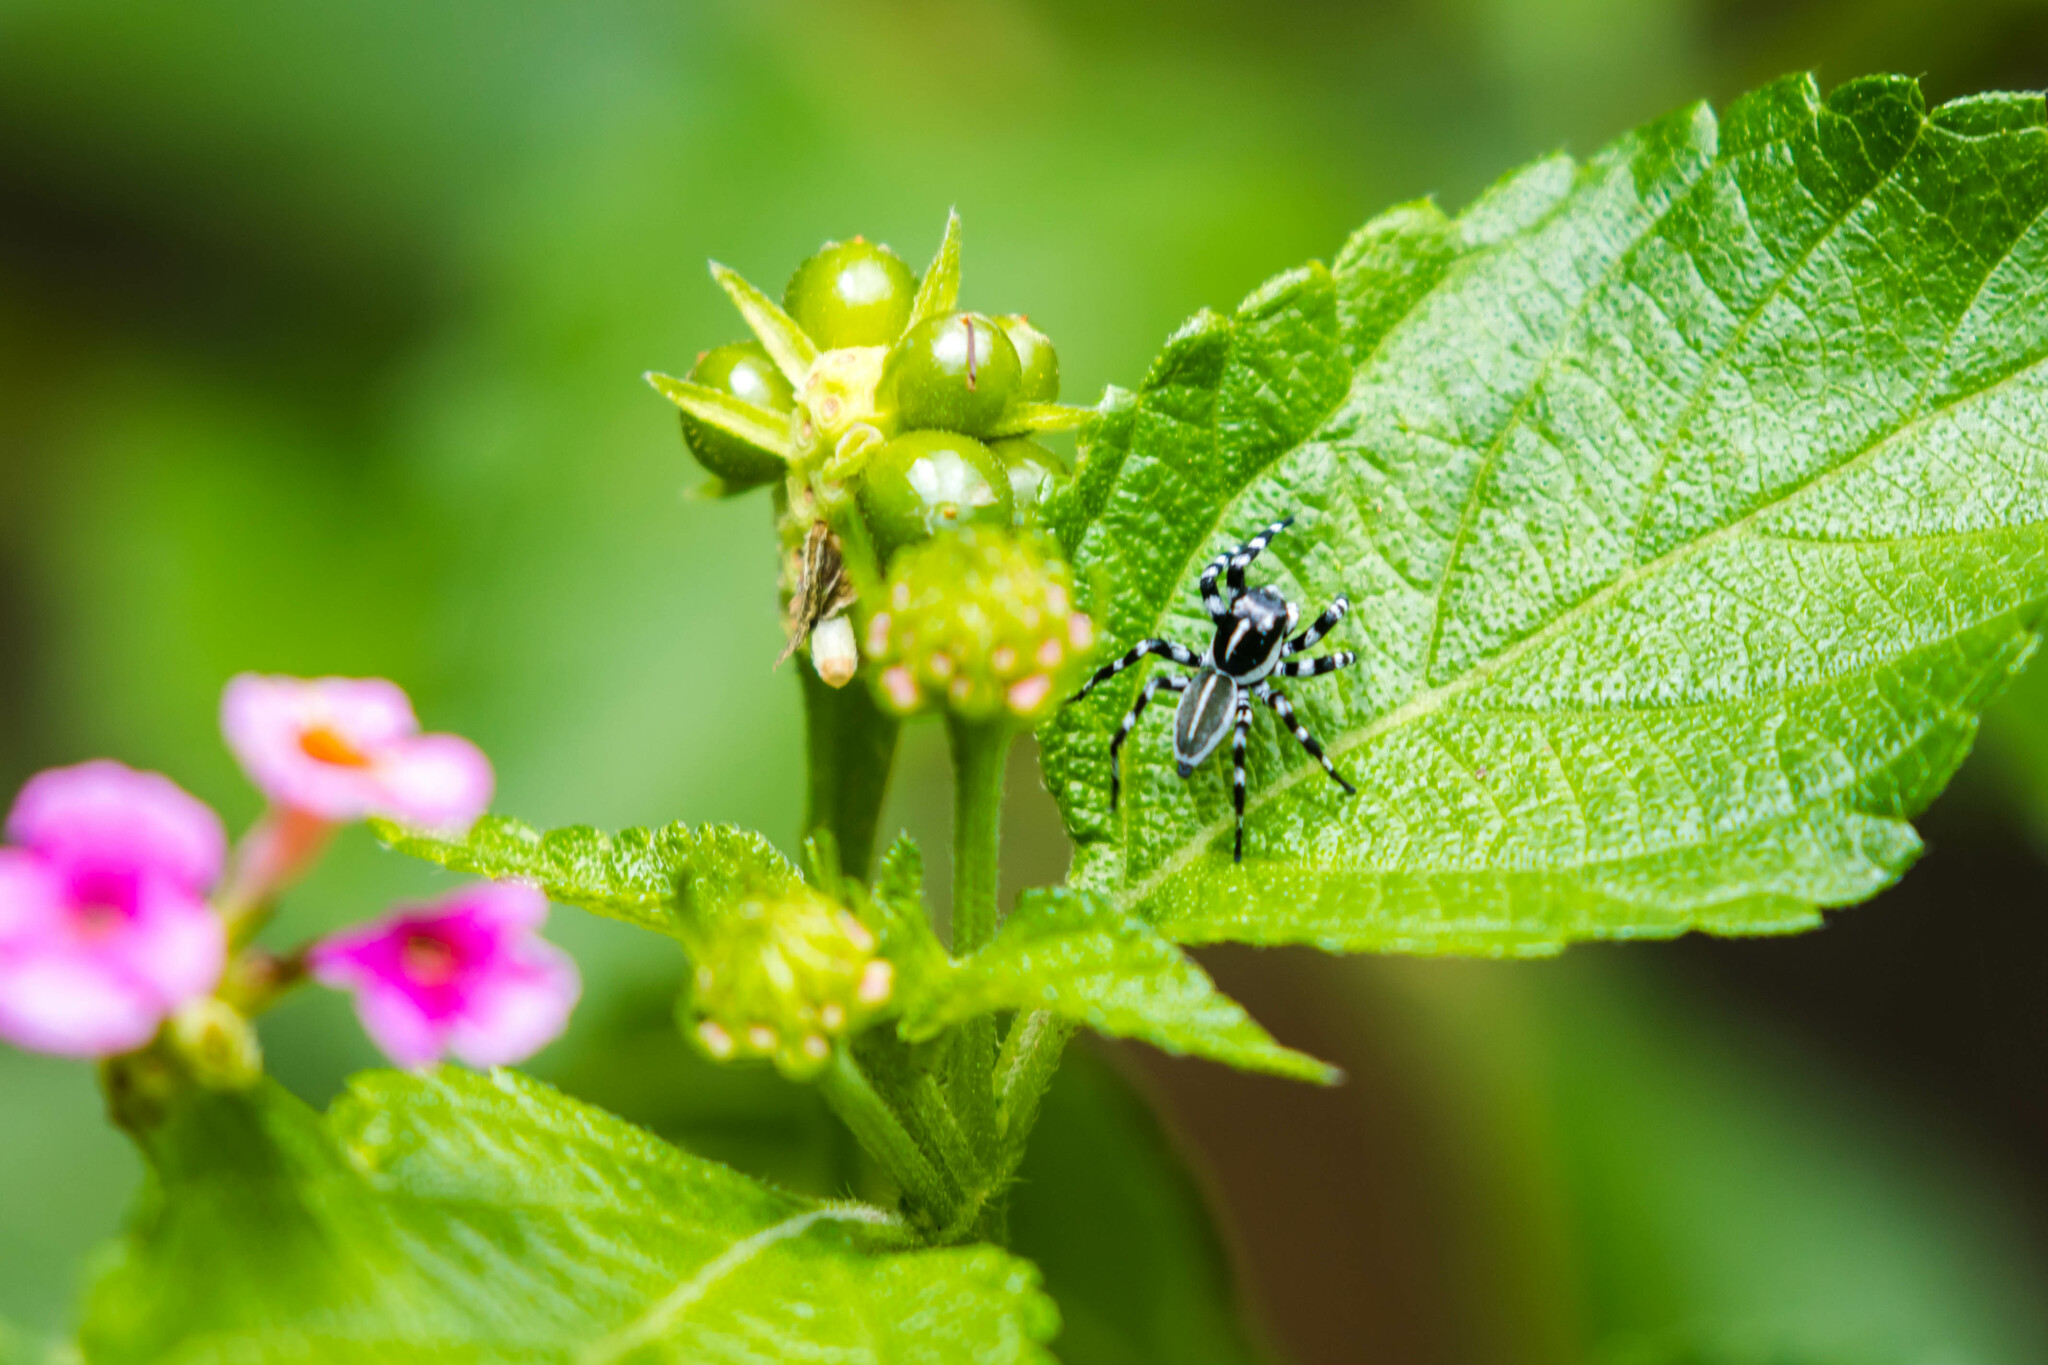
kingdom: Animalia
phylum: Arthropoda
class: Arachnida
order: Araneae
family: Salticidae
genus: Phiale
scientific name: Phiale tristis
